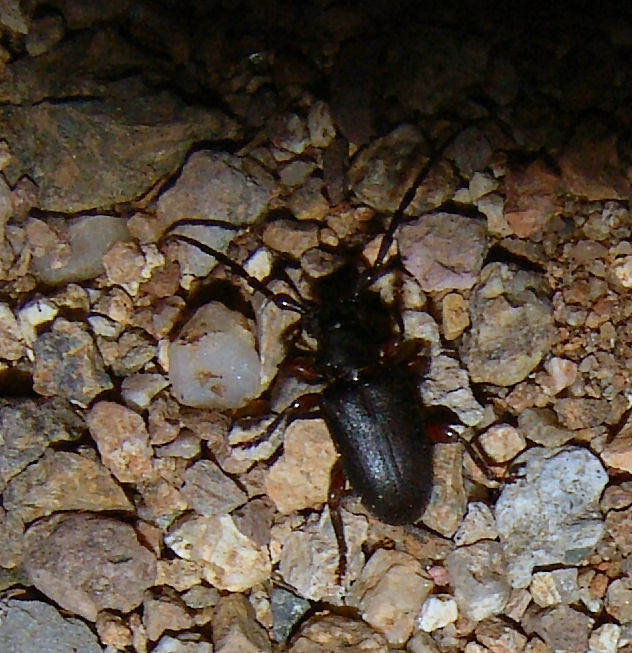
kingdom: Animalia
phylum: Arthropoda
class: Insecta
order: Coleoptera
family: Cerambycidae
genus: Peritapnia
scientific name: Peritapnia fabra
